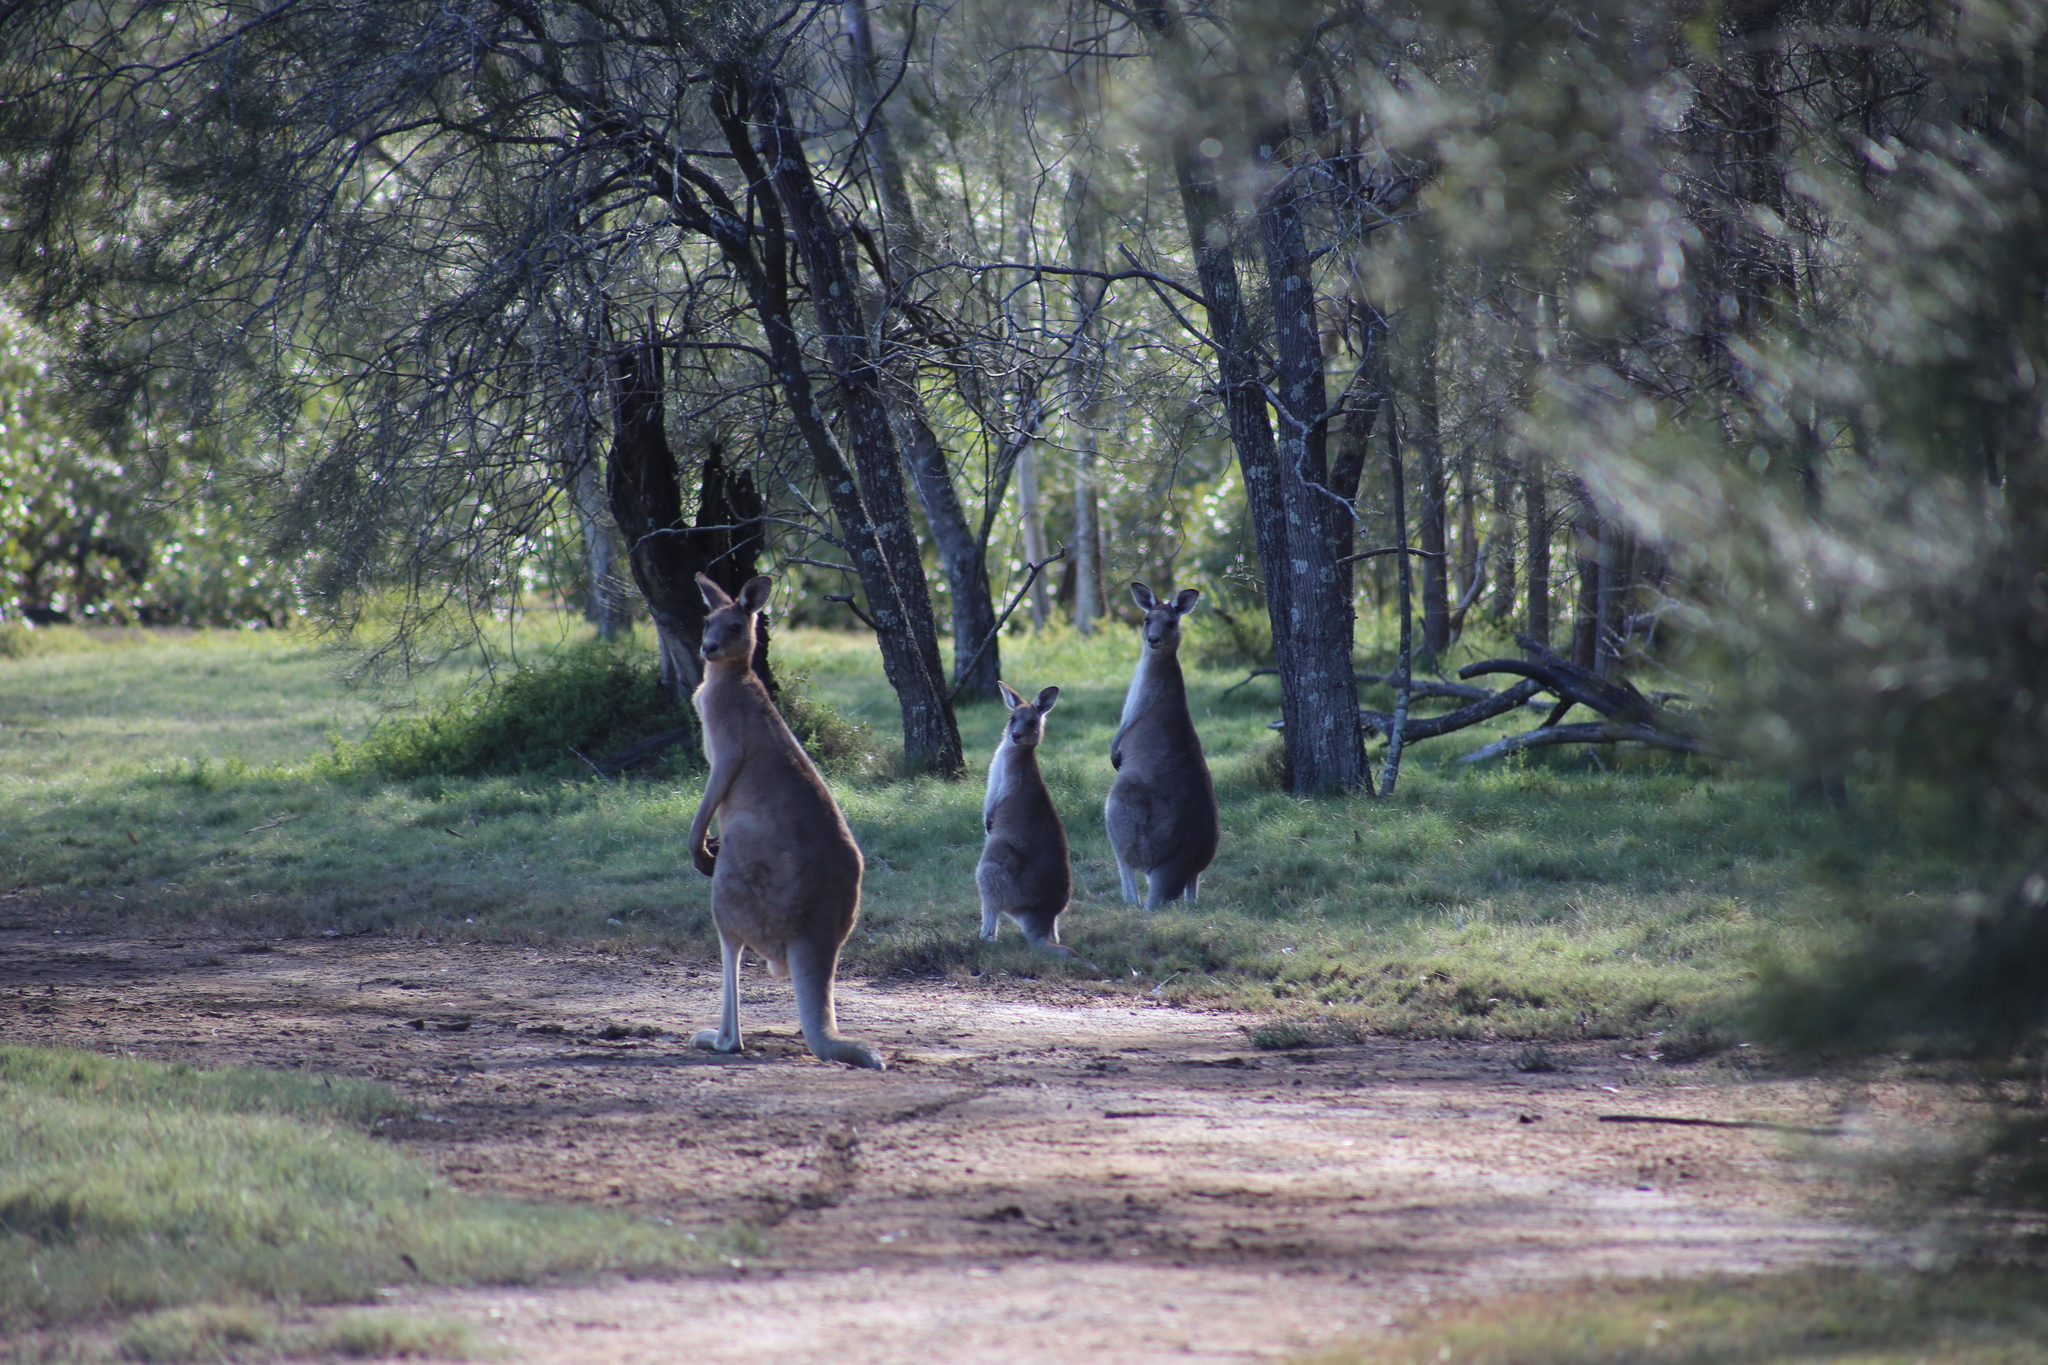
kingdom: Animalia
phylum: Chordata
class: Mammalia
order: Diprotodontia
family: Macropodidae
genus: Macropus
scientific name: Macropus giganteus
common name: Eastern grey kangaroo
